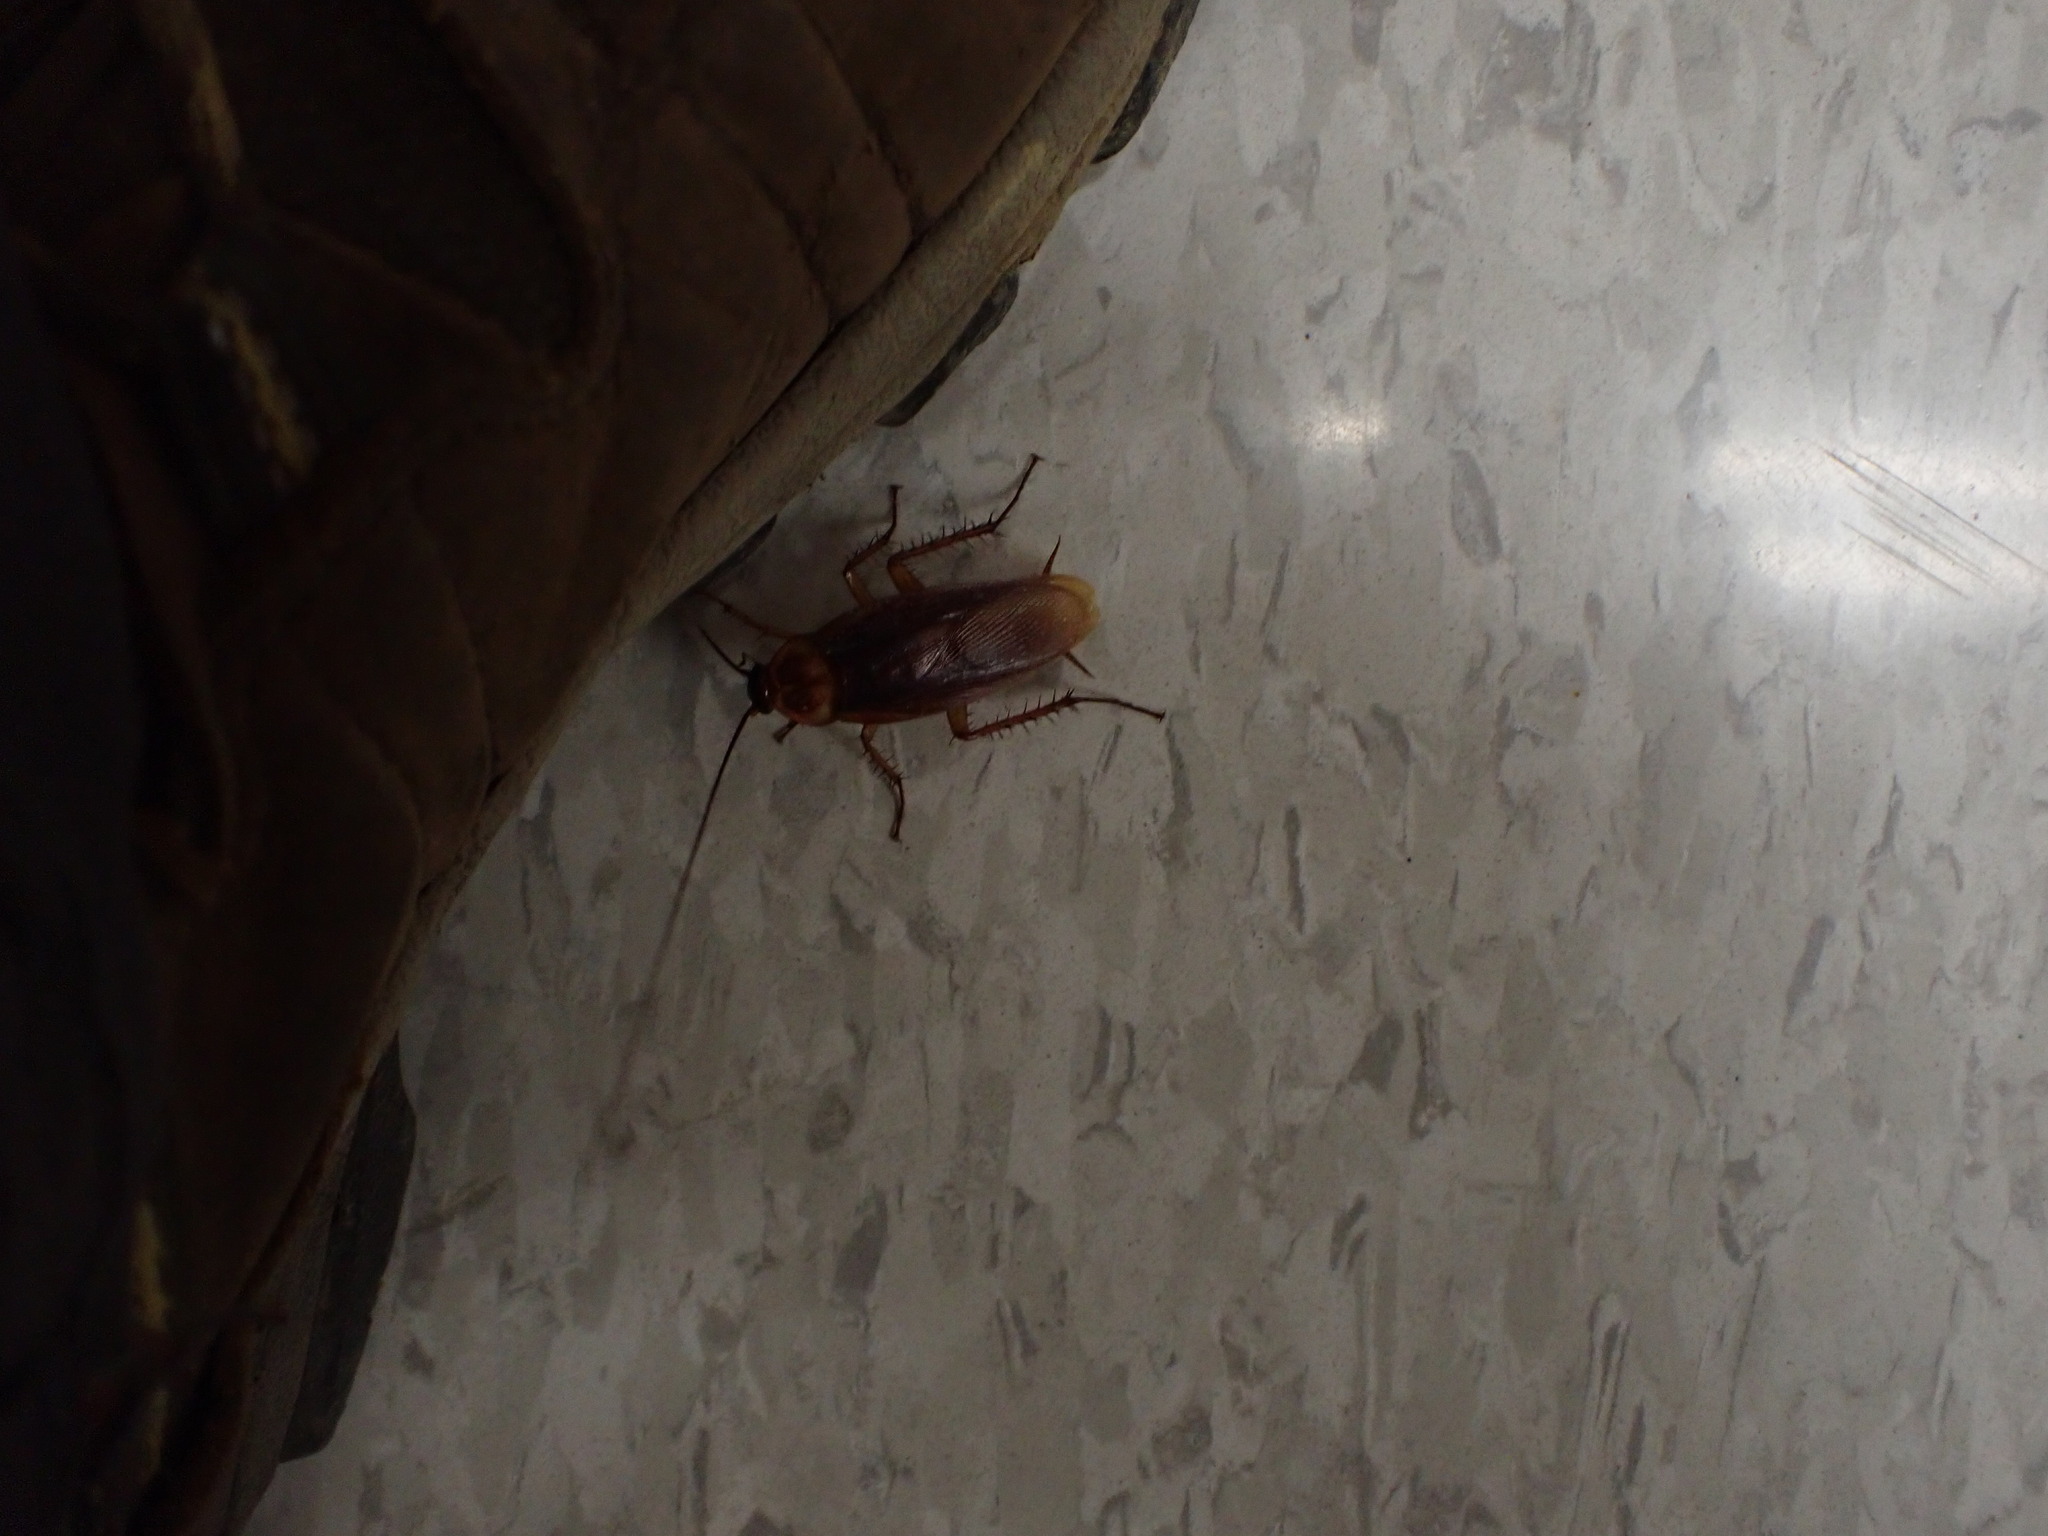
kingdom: Animalia
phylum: Arthropoda
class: Insecta
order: Blattodea
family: Blattidae
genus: Periplaneta
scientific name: Periplaneta americana
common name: American cockroach
